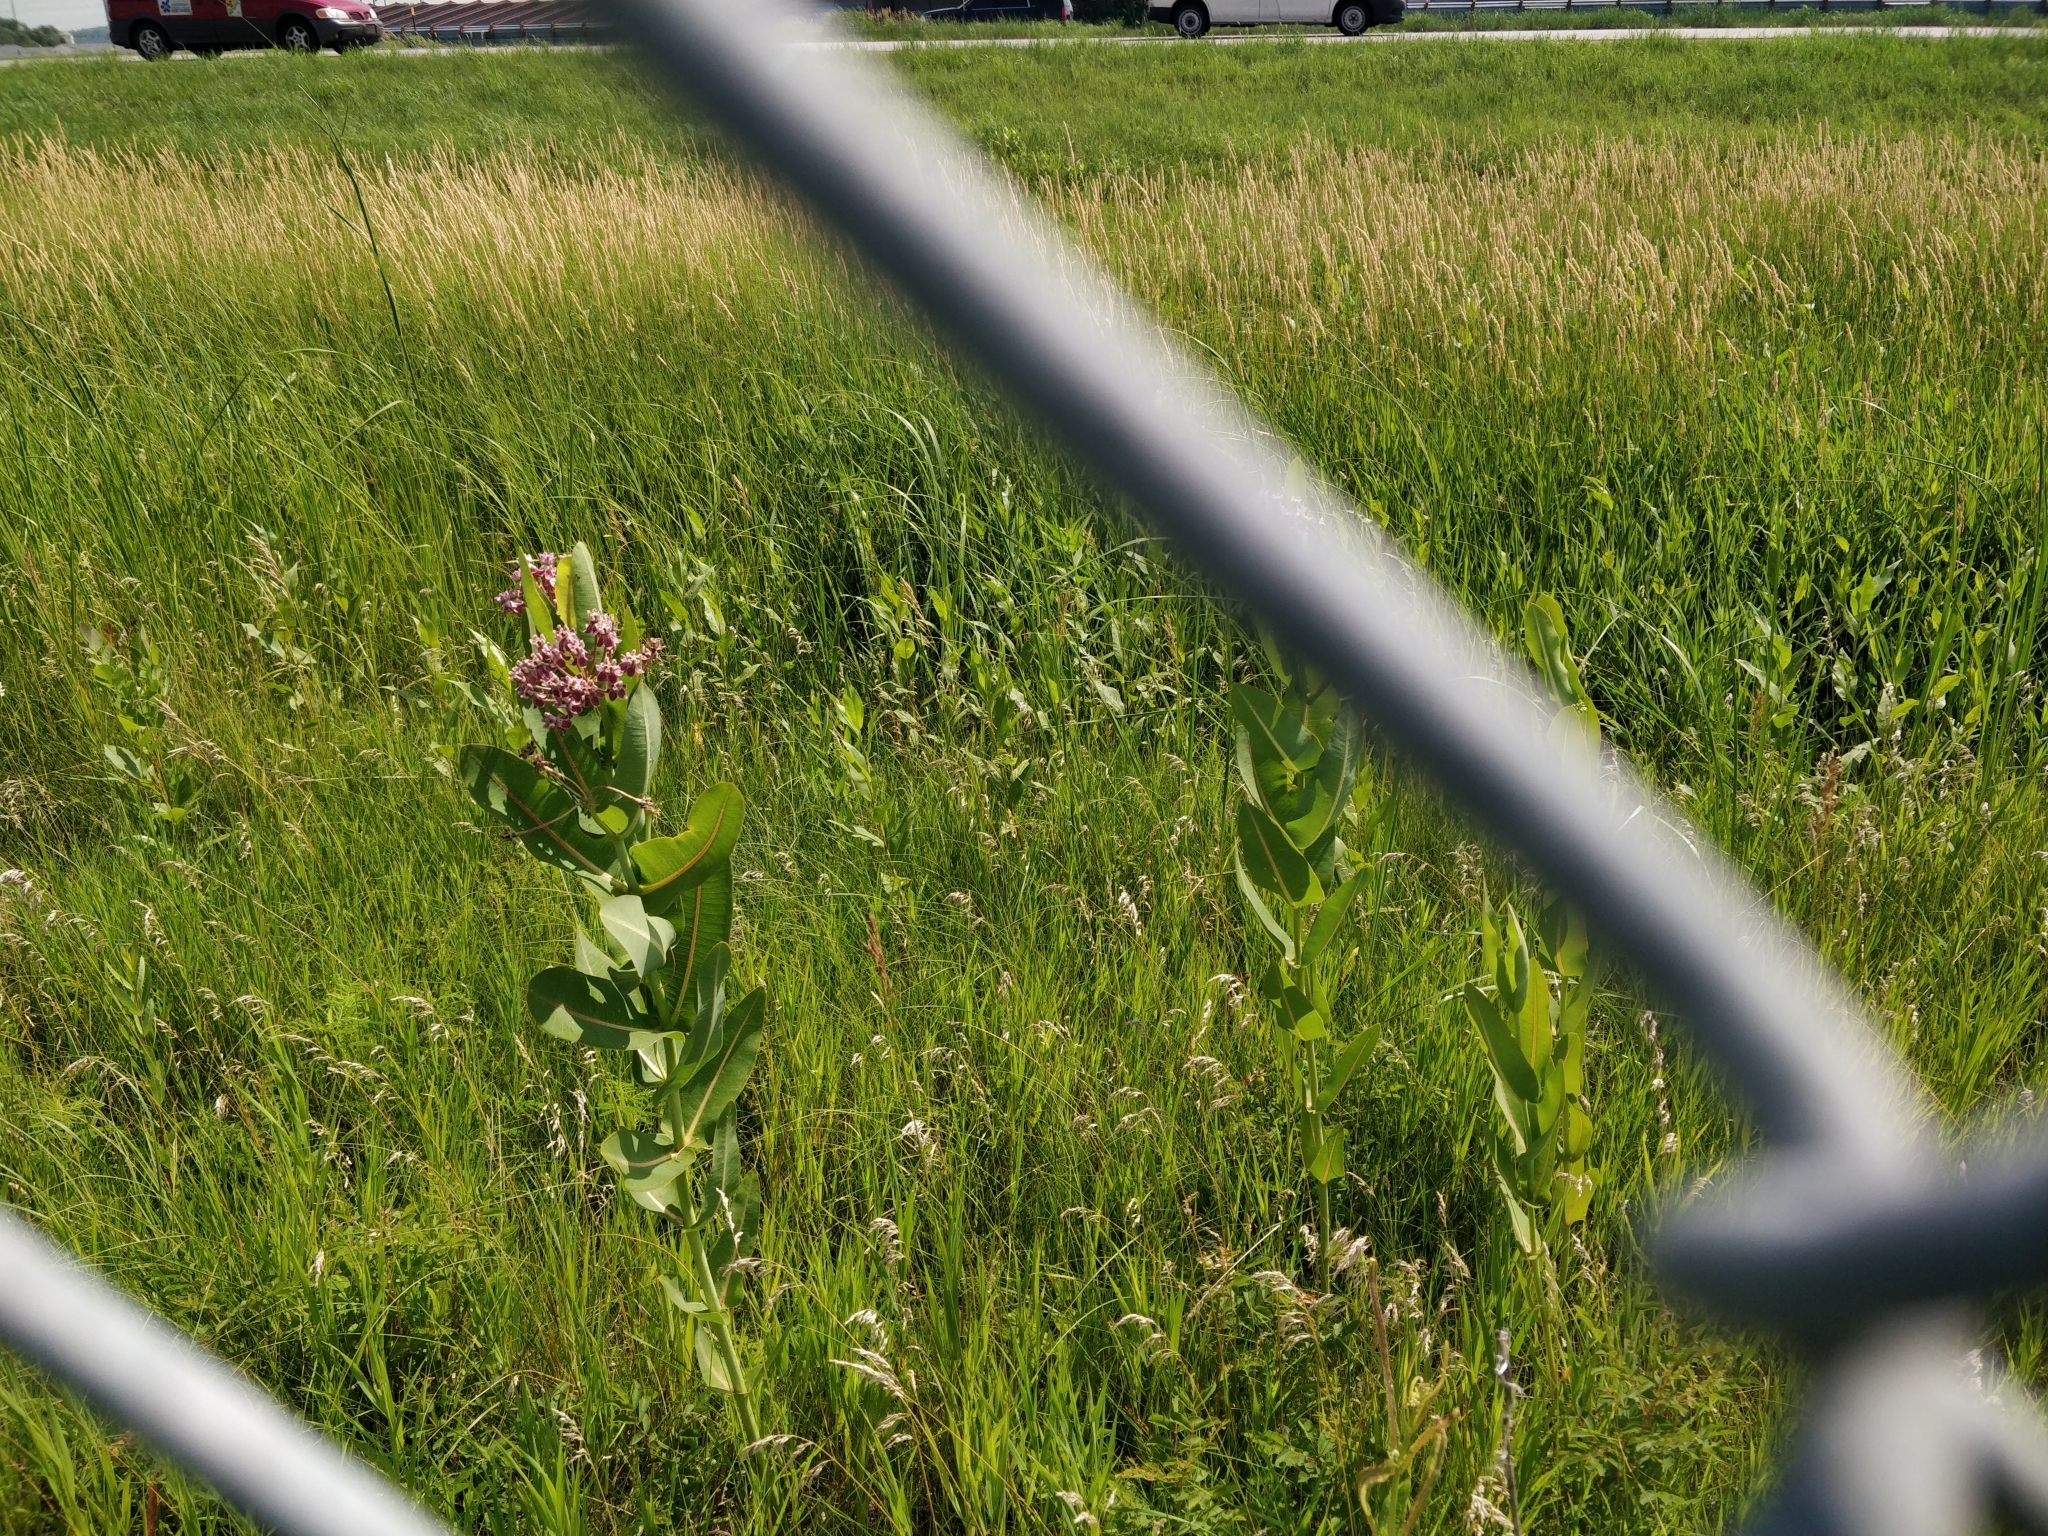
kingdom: Plantae
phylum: Tracheophyta
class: Magnoliopsida
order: Gentianales
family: Apocynaceae
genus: Asclepias
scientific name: Asclepias sullivantii
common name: Prairie milkweed
